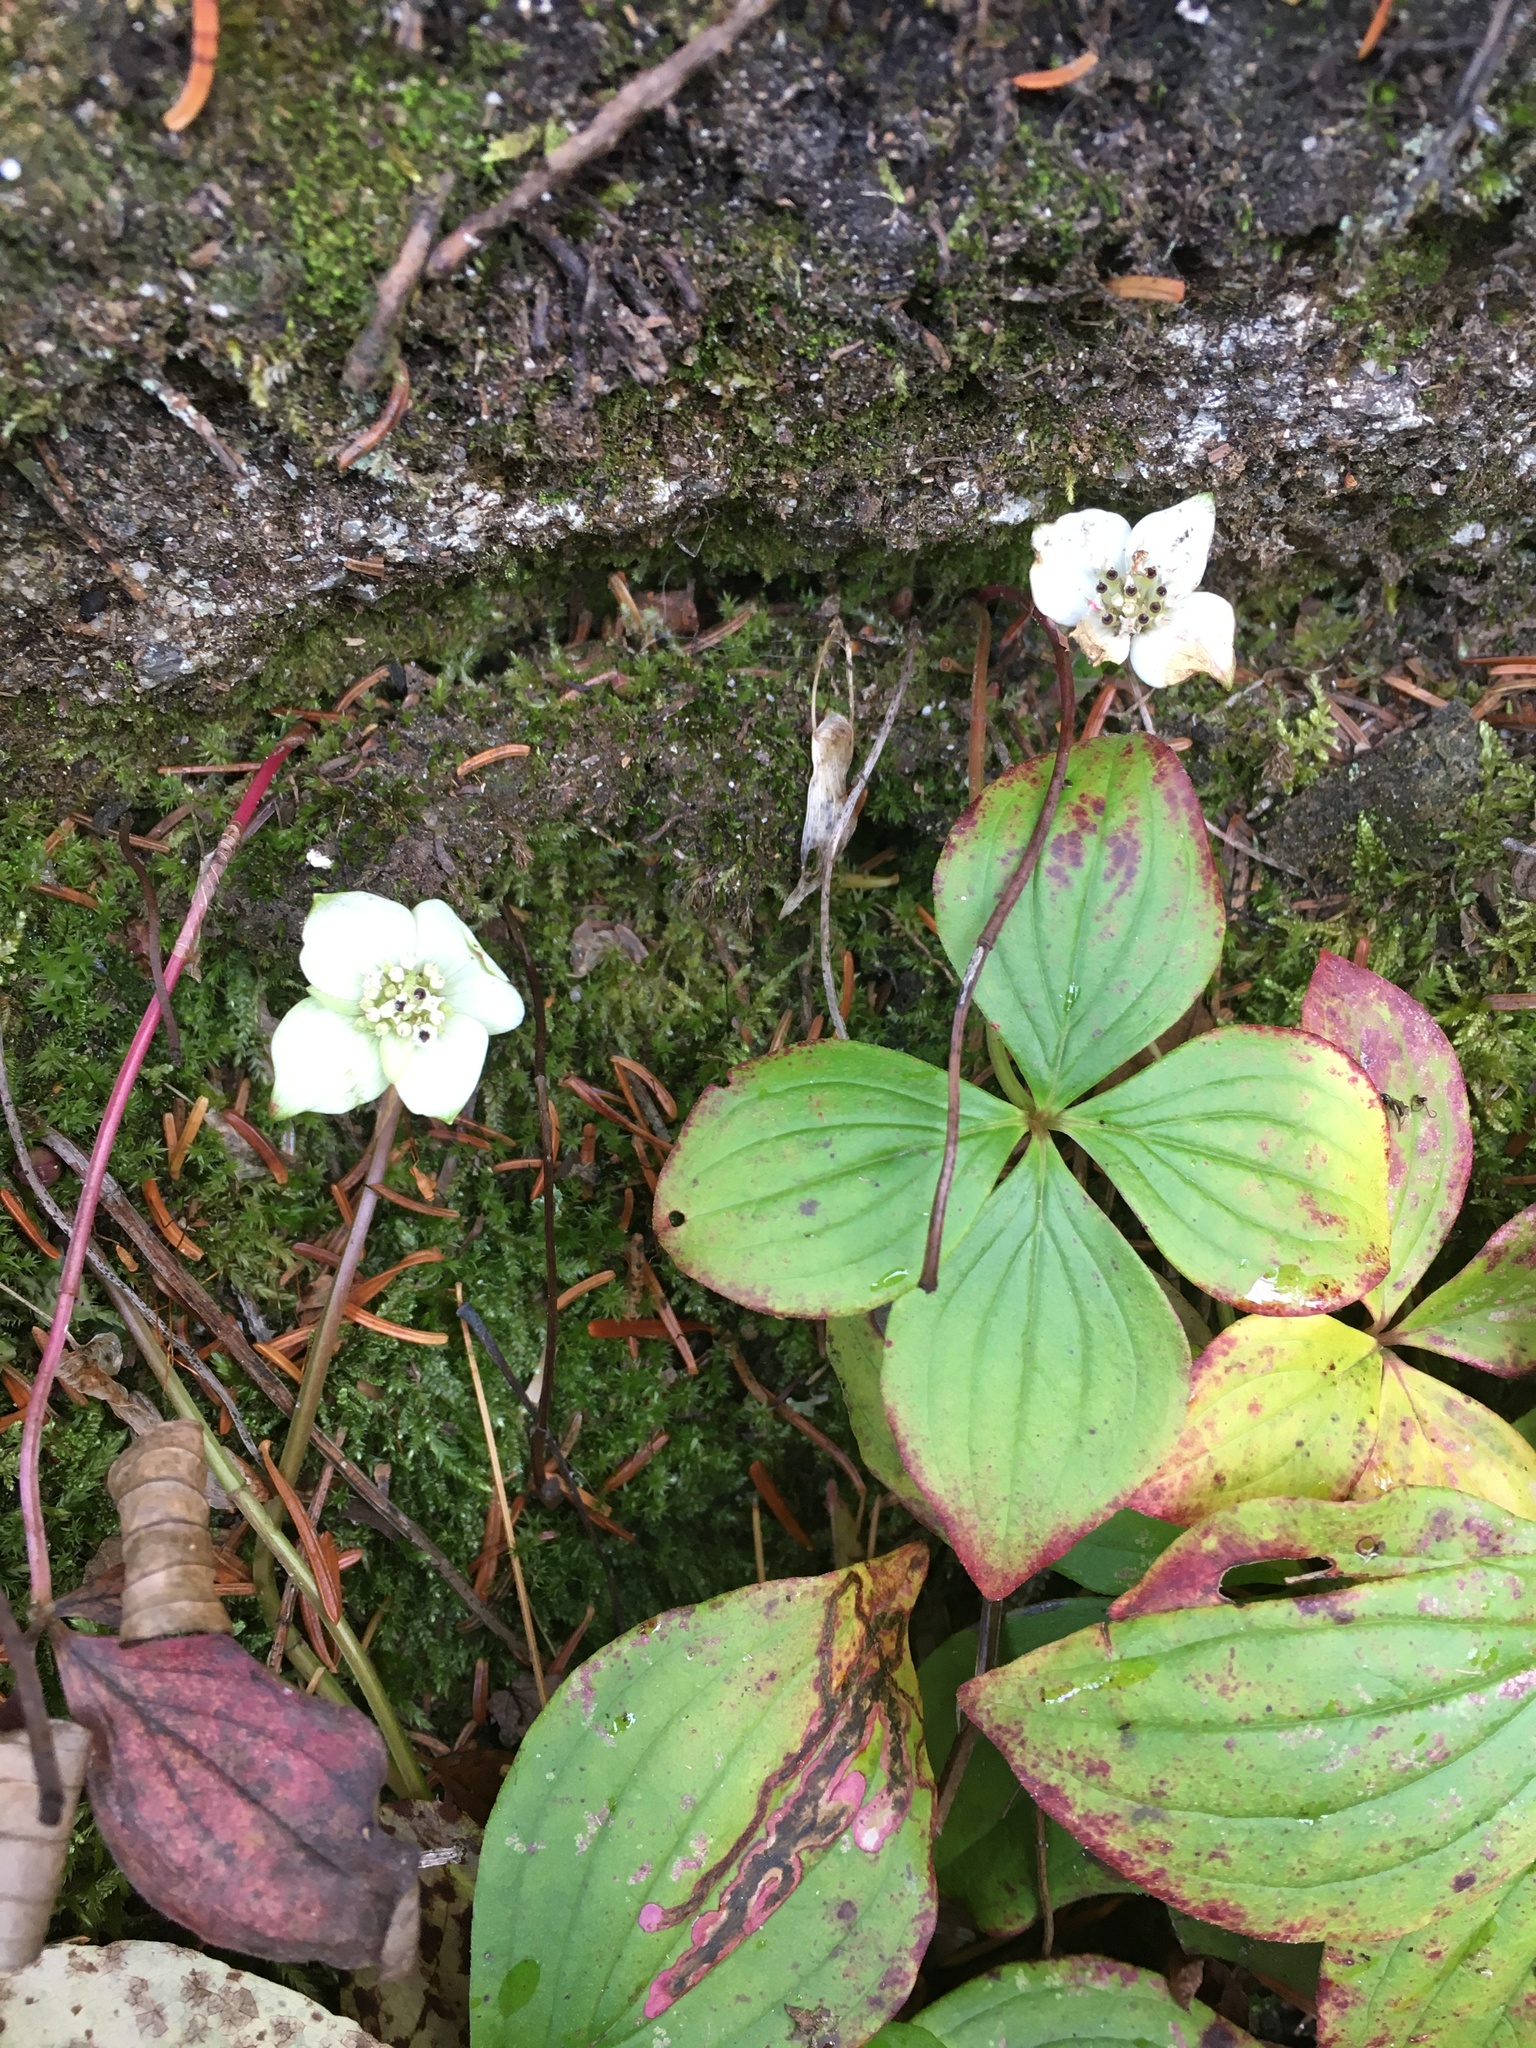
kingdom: Plantae
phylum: Tracheophyta
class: Magnoliopsida
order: Cornales
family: Cornaceae
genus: Cornus
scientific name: Cornus canadensis
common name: Creeping dogwood
